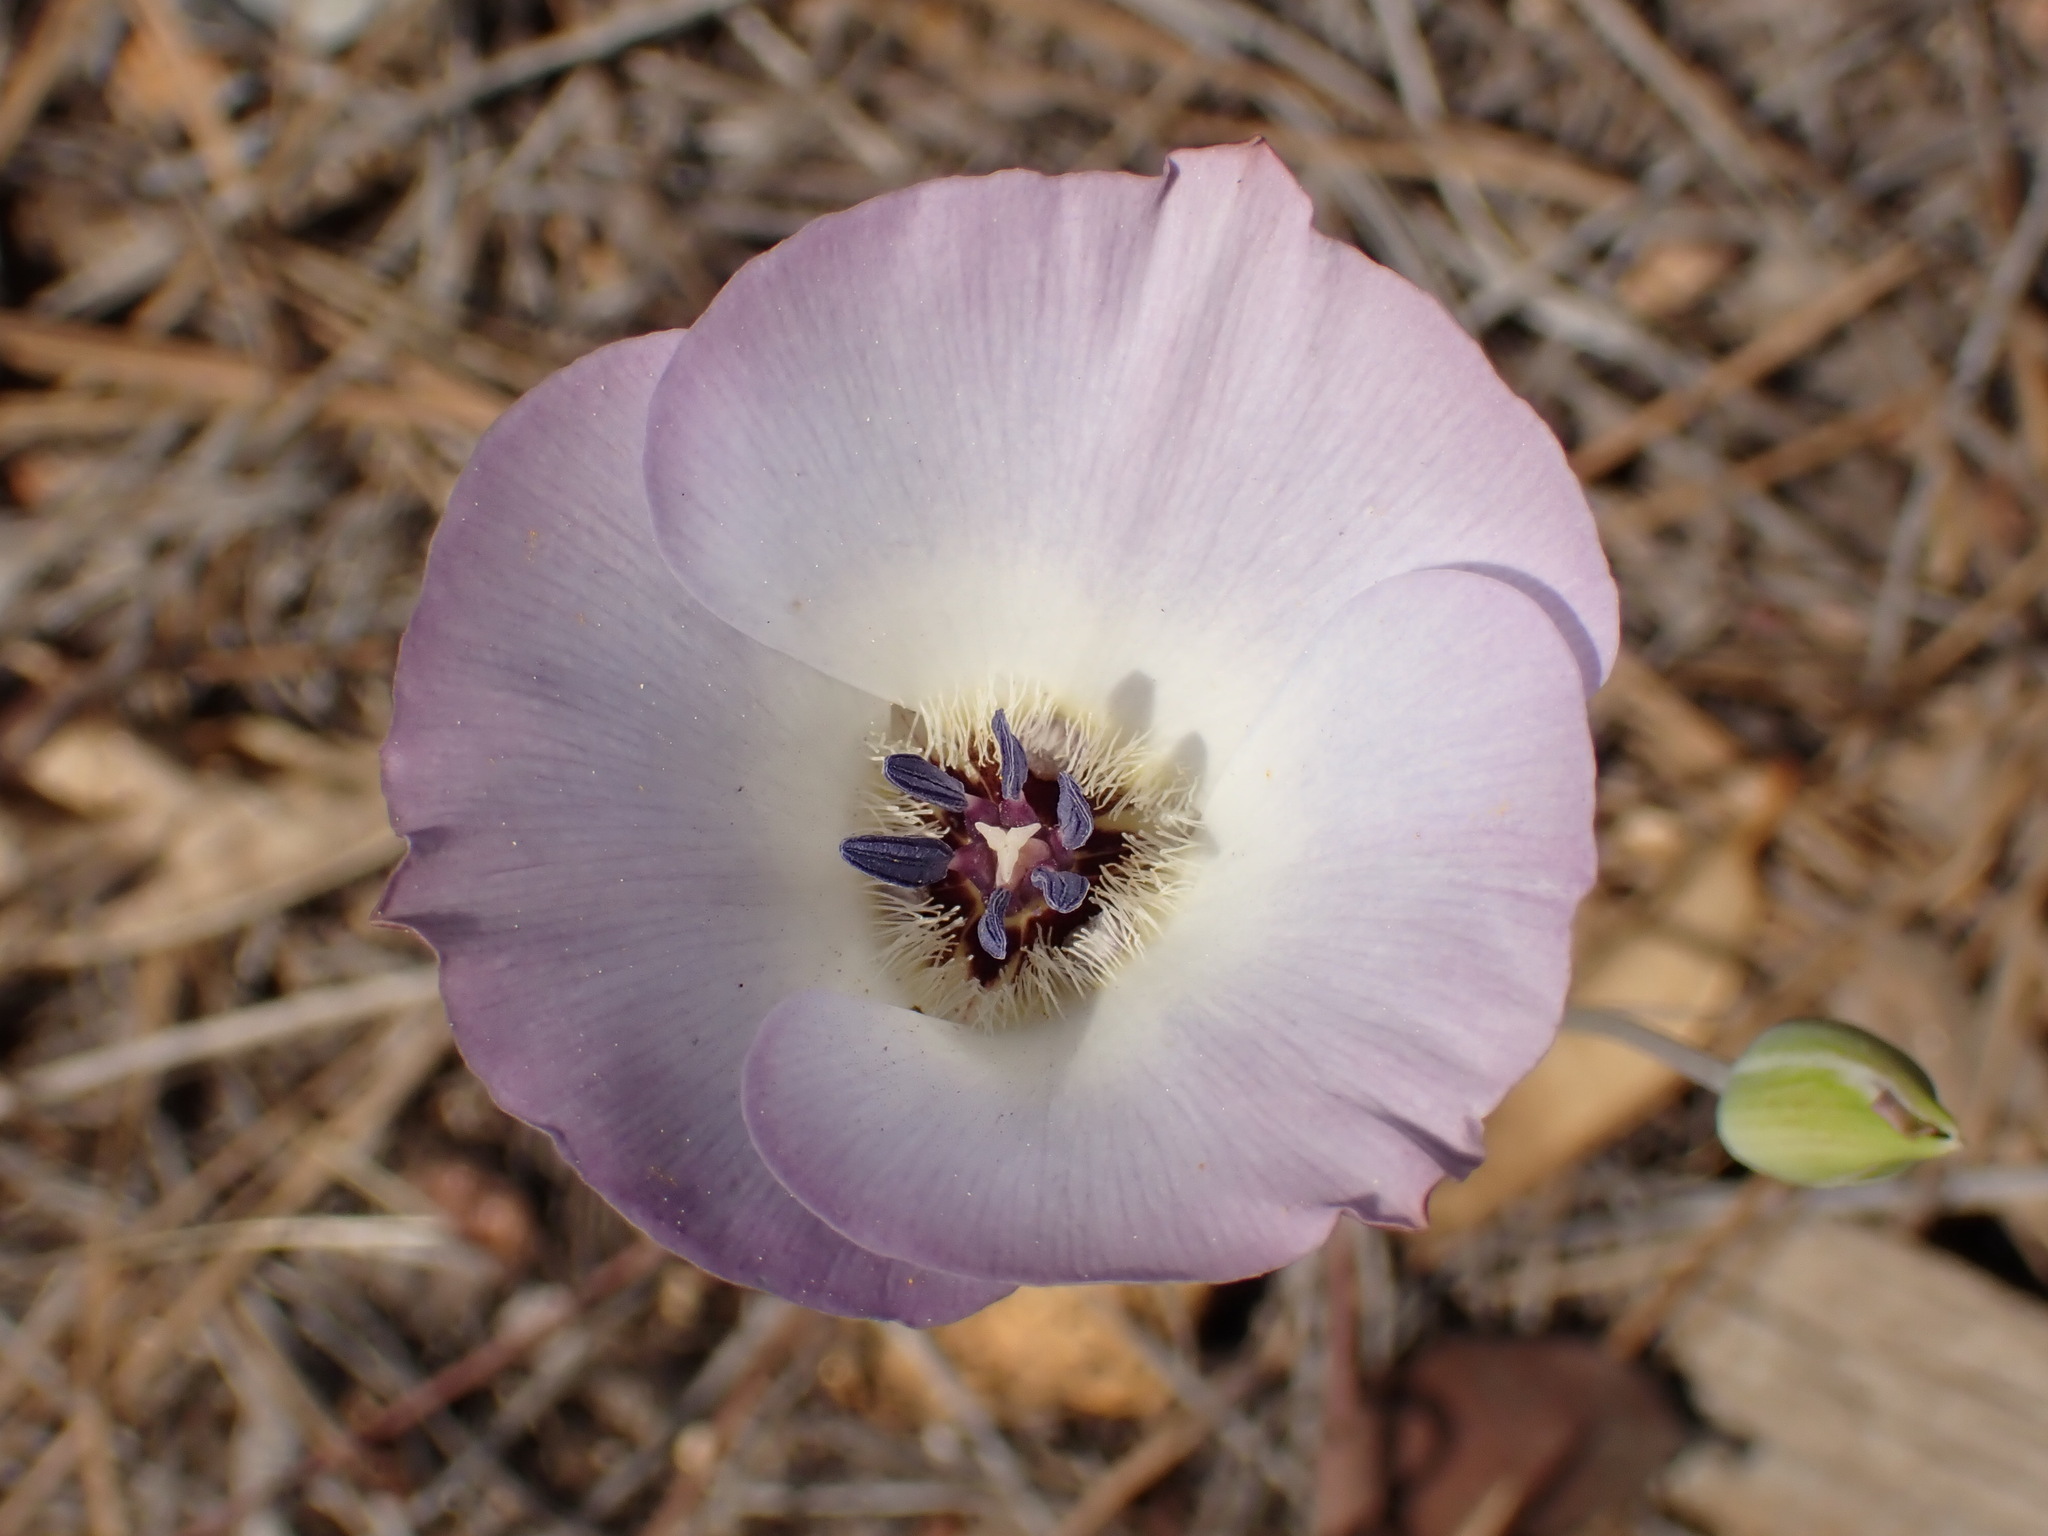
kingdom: Plantae
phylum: Tracheophyta
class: Liliopsida
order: Liliales
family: Liliaceae
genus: Calochortus
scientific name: Calochortus invenustus
